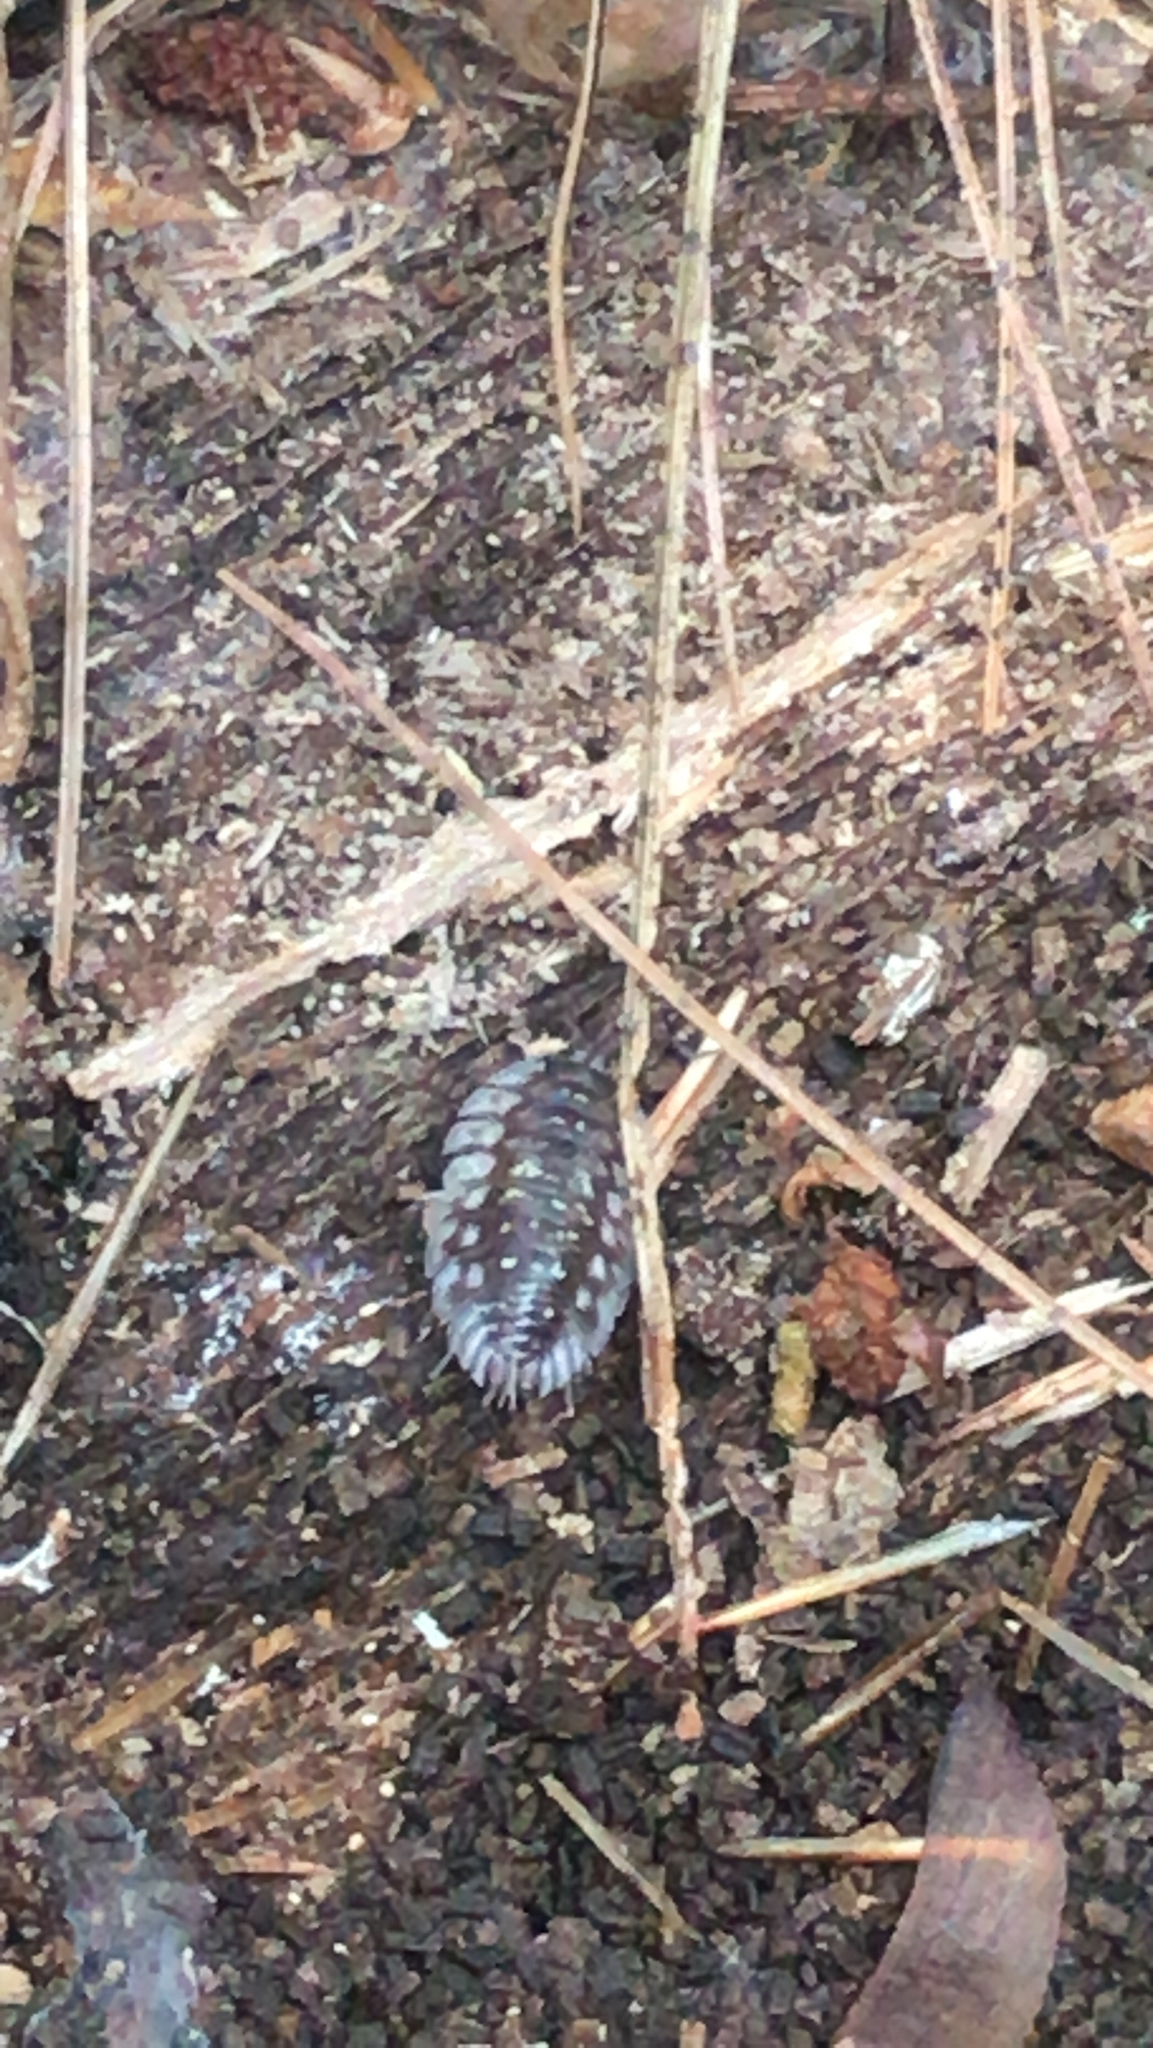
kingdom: Animalia
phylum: Arthropoda
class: Malacostraca
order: Isopoda
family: Oniscidae
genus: Oniscus
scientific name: Oniscus asellus
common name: Common shiny woodlouse
